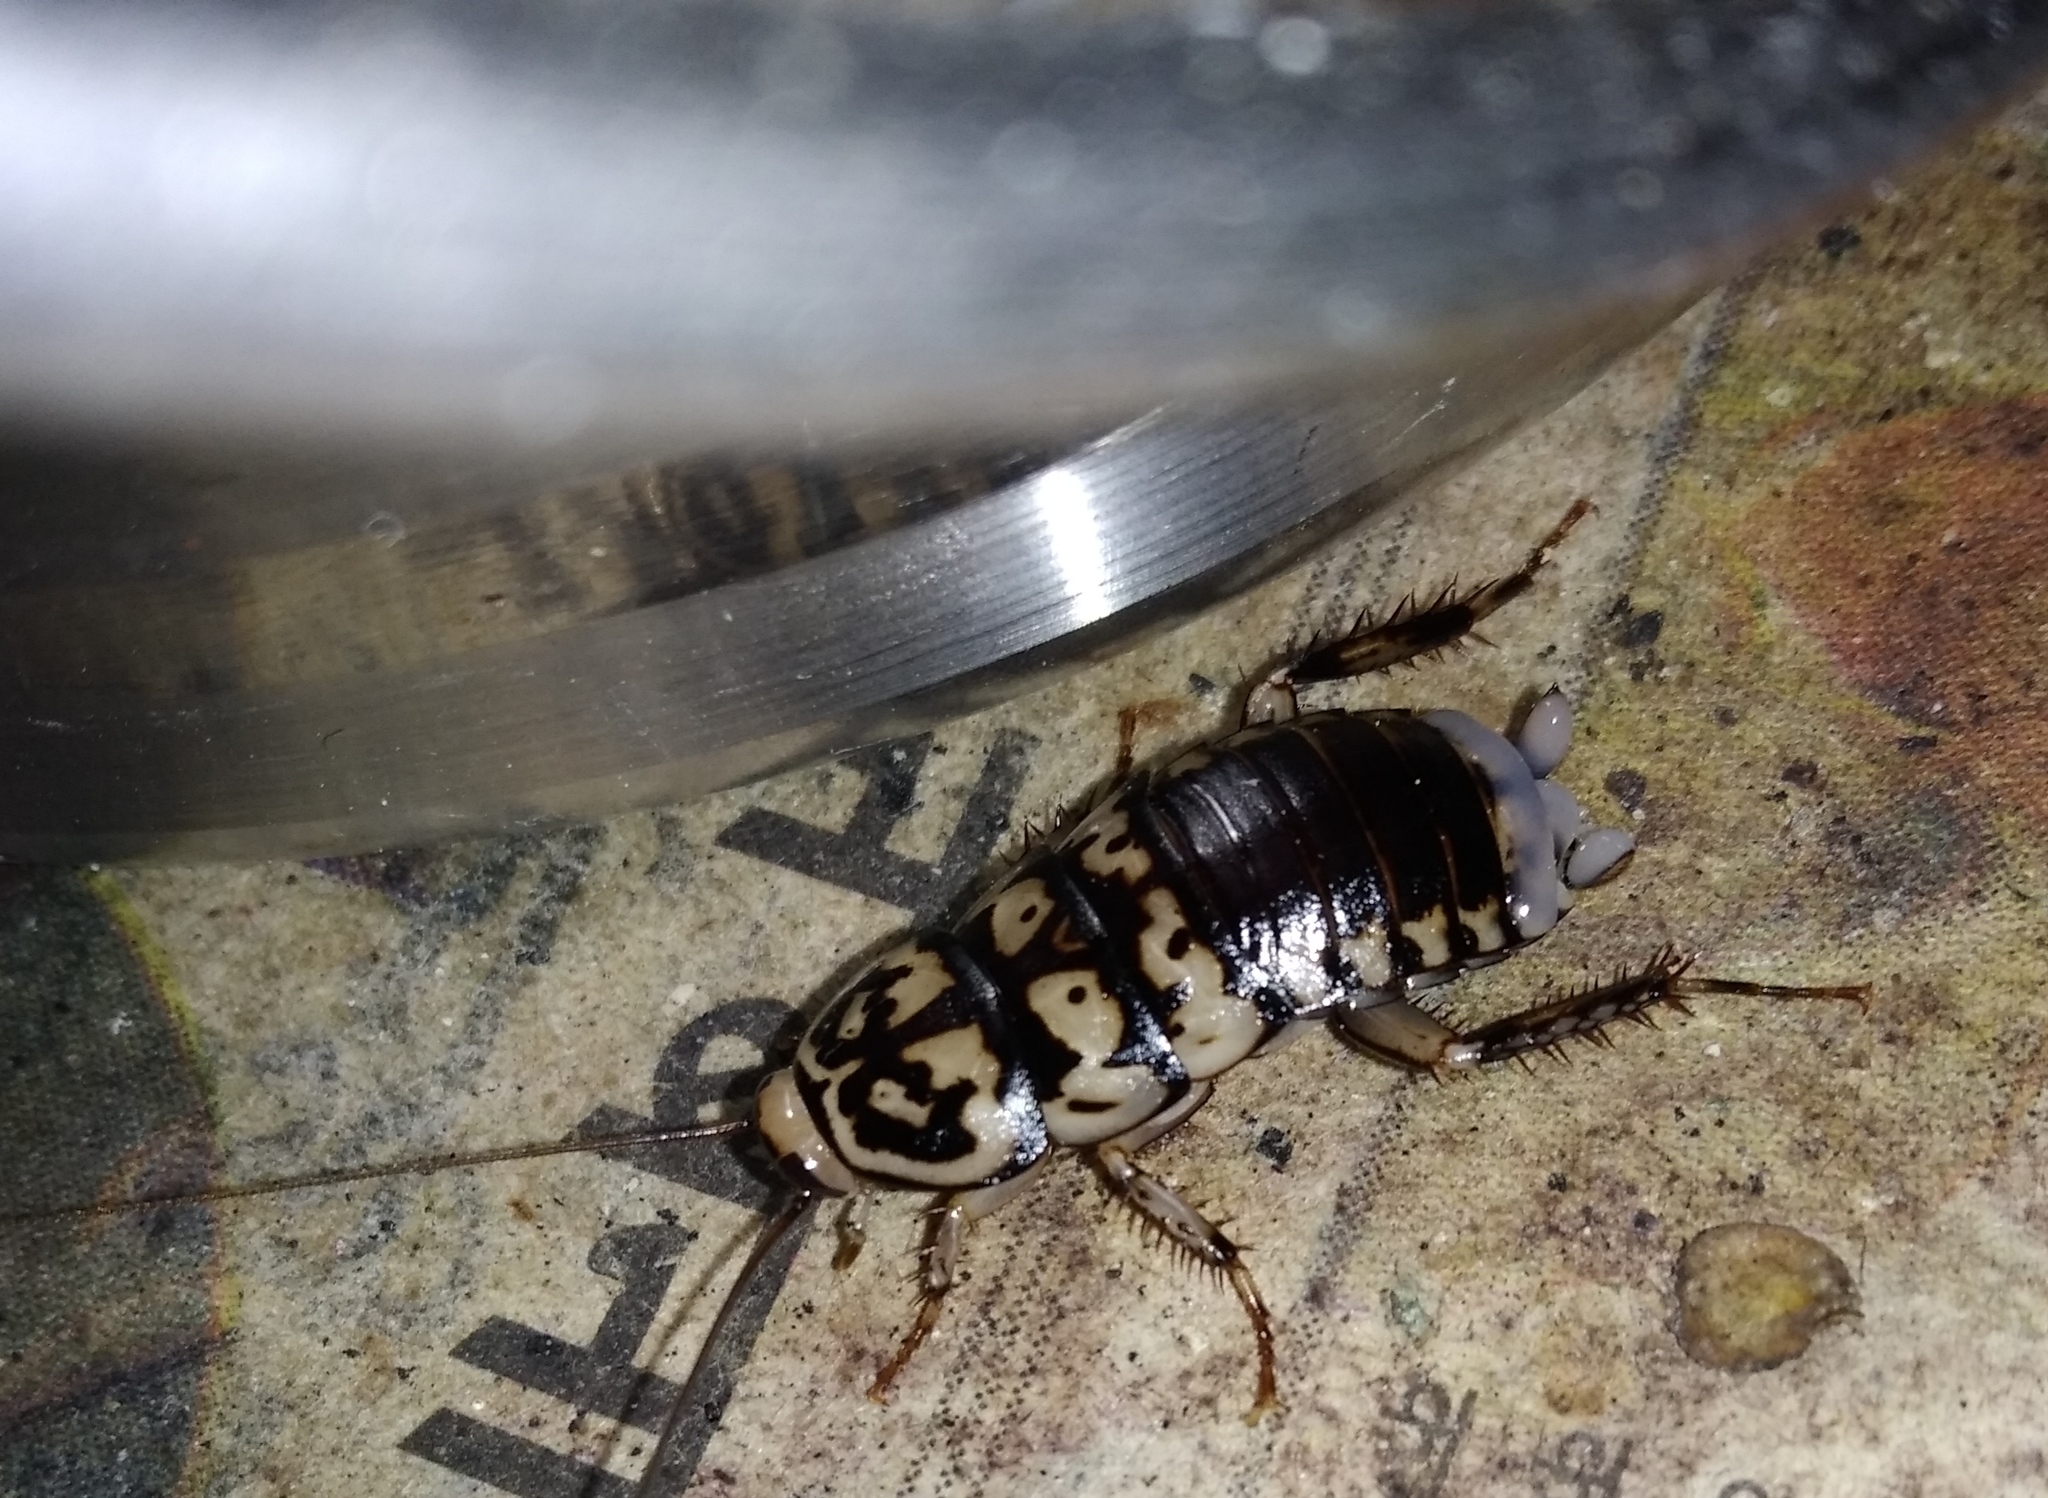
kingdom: Animalia
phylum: Arthropoda
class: Insecta
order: Blattodea
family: Blattidae
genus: Neostylopyga
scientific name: Neostylopyga rhombifolia
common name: Harlequin cockroach
